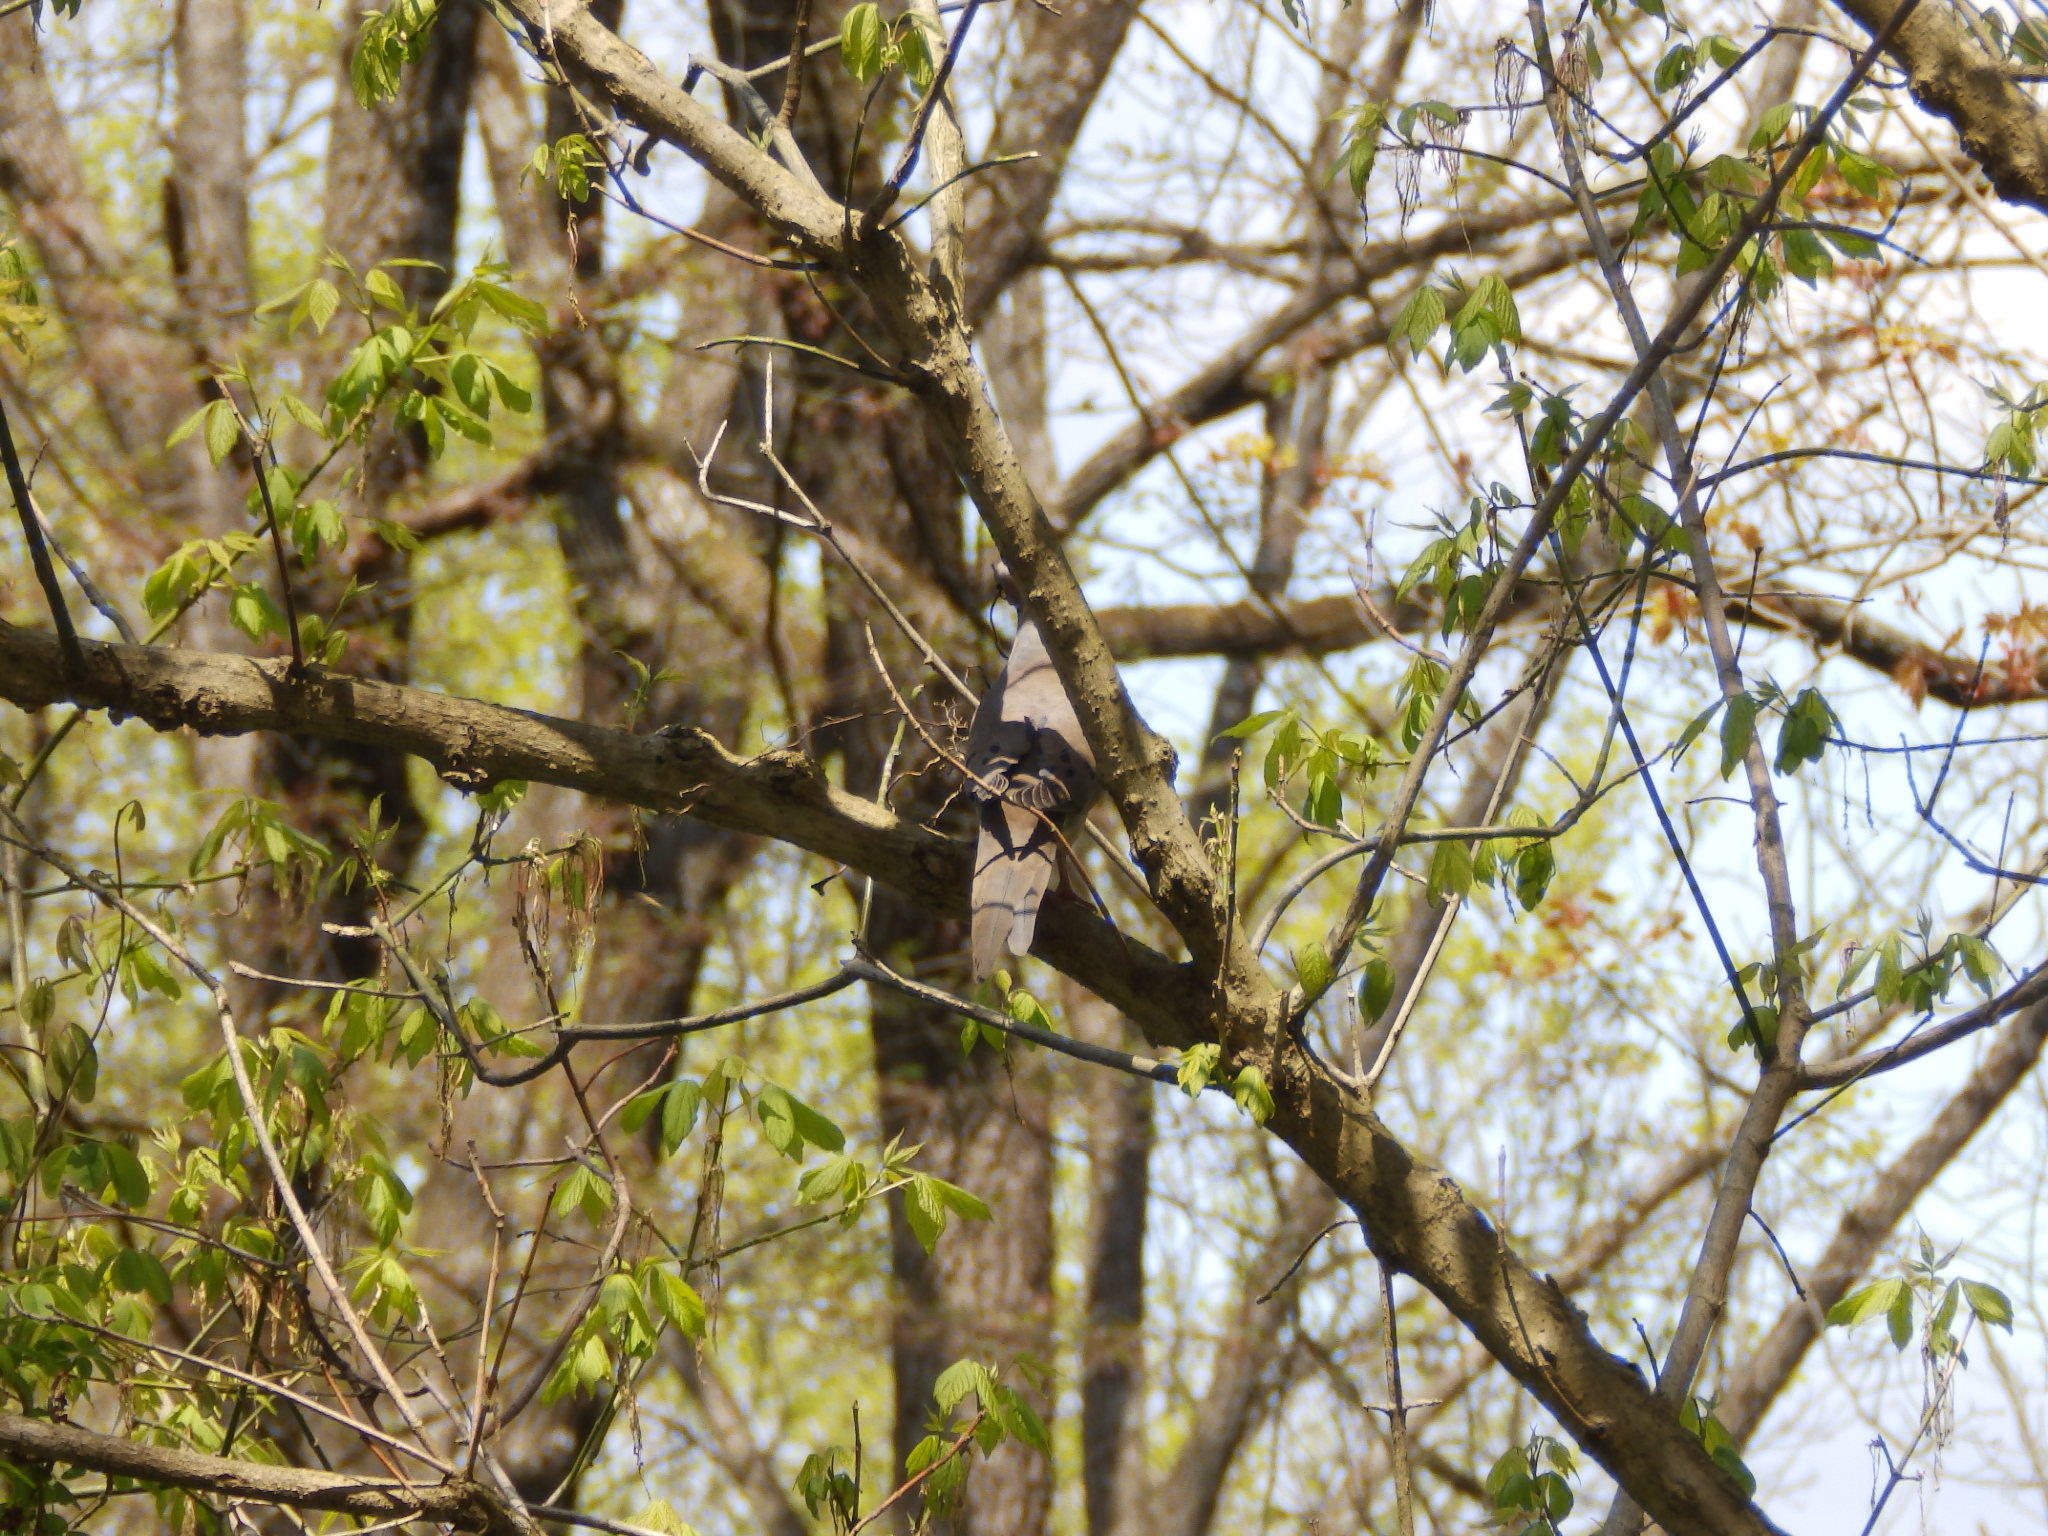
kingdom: Animalia
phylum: Chordata
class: Aves
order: Columbiformes
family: Columbidae
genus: Zenaida
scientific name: Zenaida macroura
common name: Mourning dove
